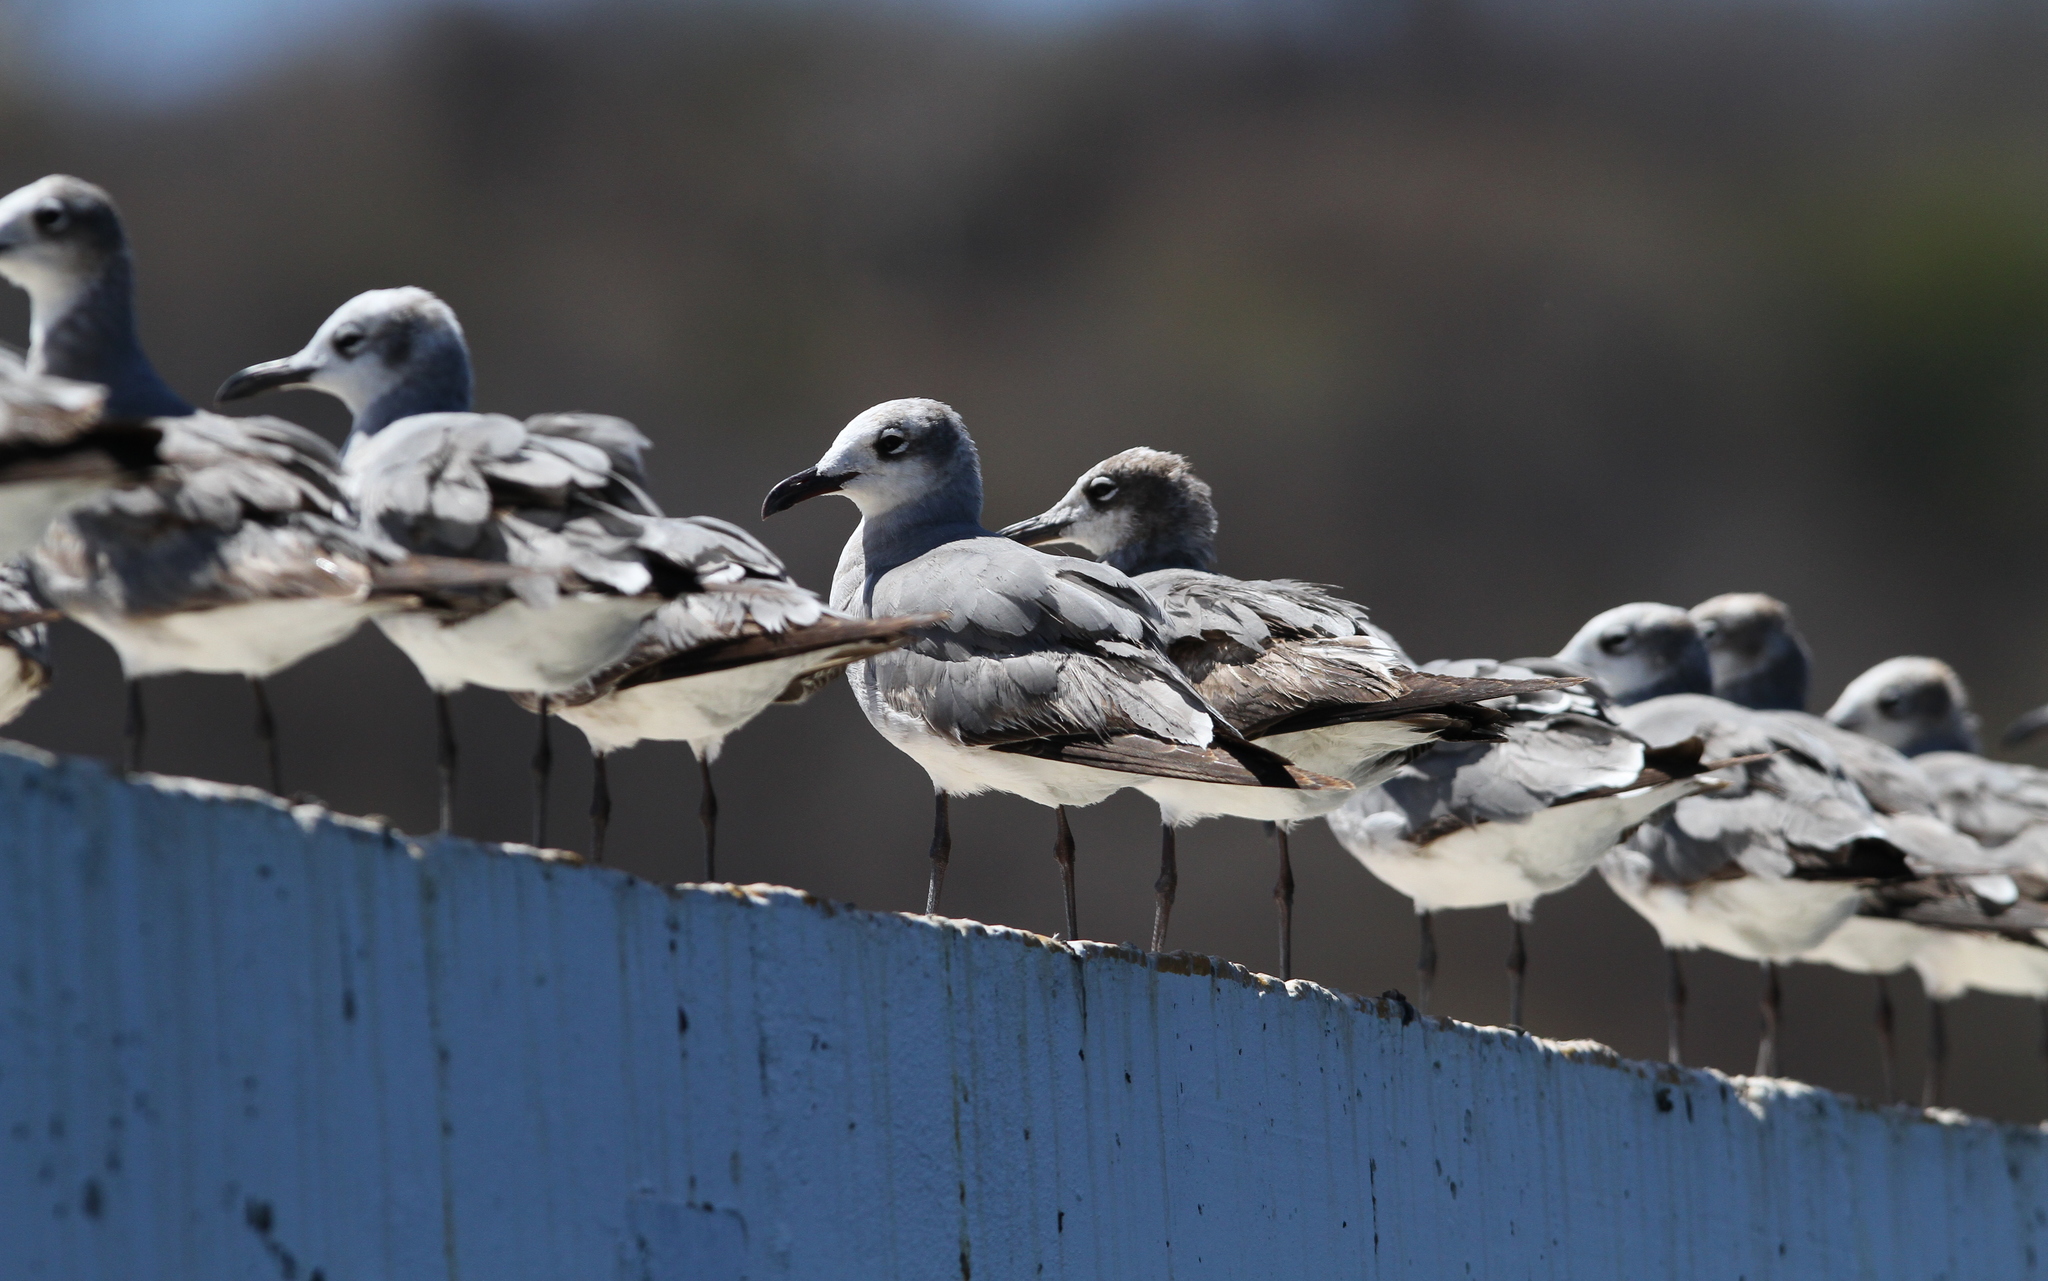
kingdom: Animalia
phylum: Chordata
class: Aves
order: Charadriiformes
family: Laridae
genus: Leucophaeus
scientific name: Leucophaeus atricilla
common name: Laughing gull
